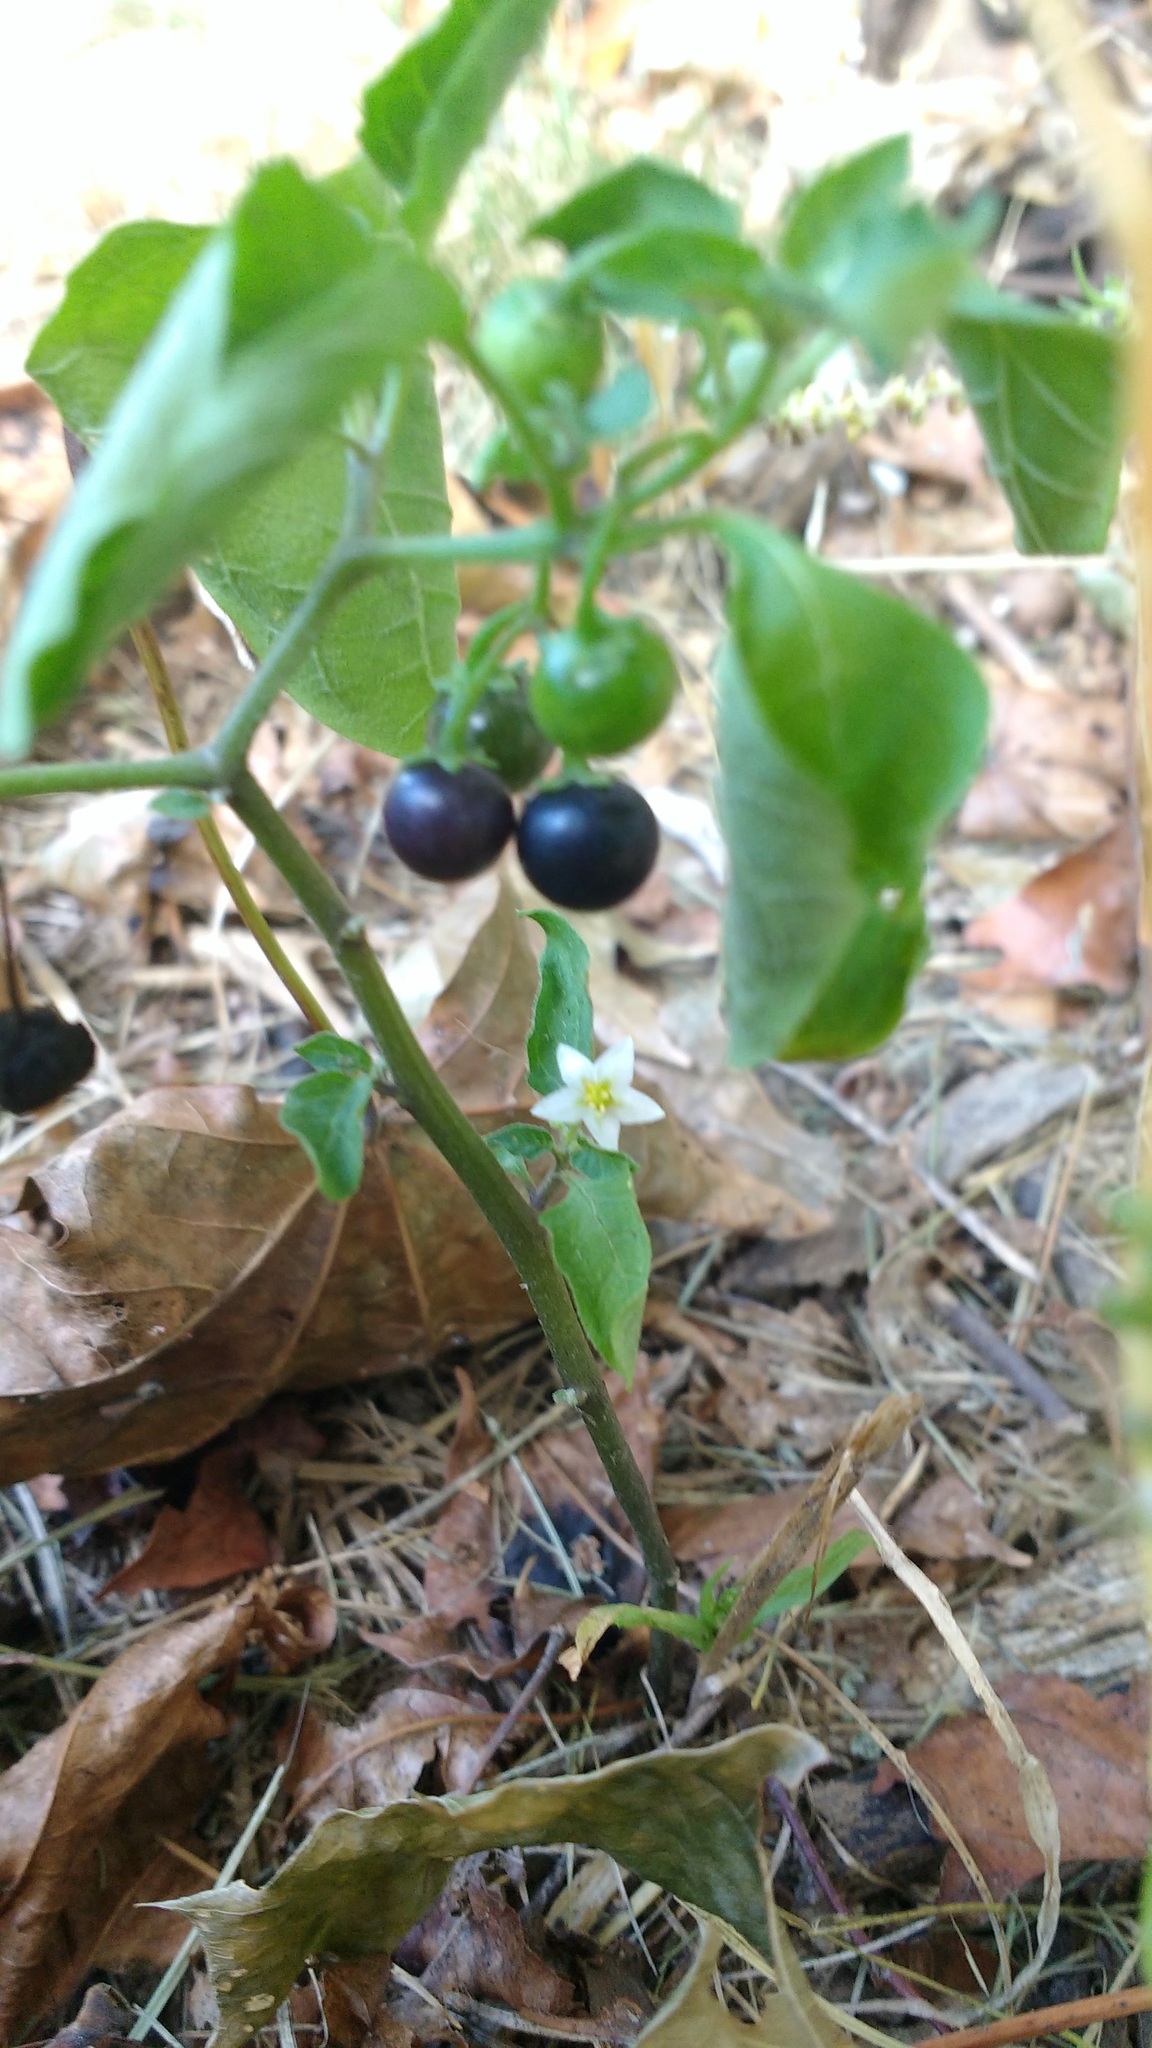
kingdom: Plantae
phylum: Tracheophyta
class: Magnoliopsida
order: Solanales
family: Solanaceae
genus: Solanum
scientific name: Solanum nigrum
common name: Black nightshade
